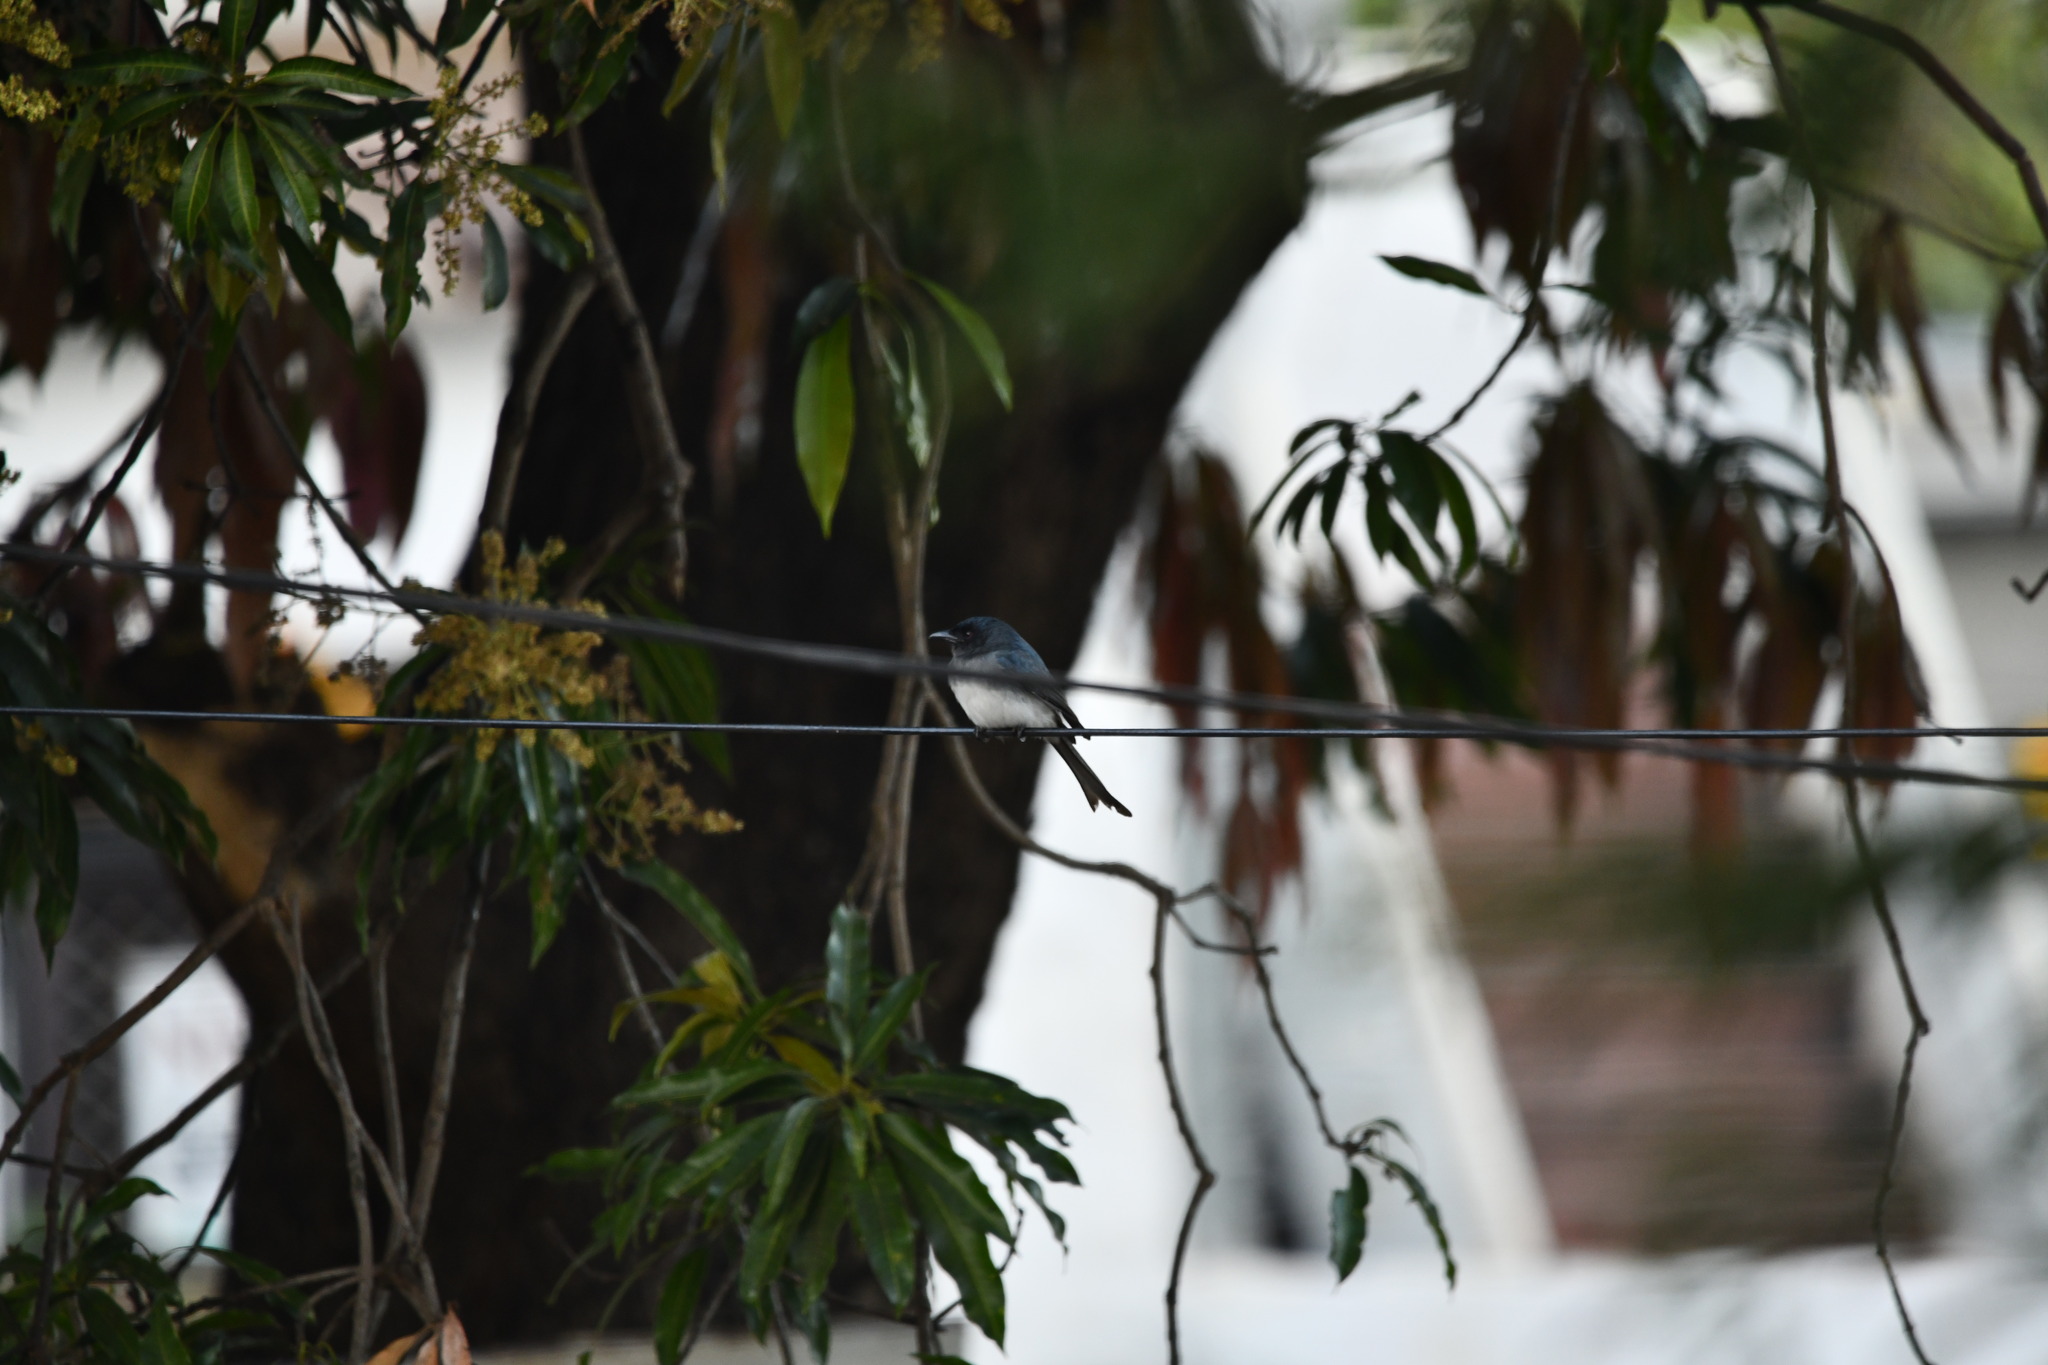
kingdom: Animalia
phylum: Chordata
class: Aves
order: Passeriformes
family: Dicruridae
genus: Dicrurus
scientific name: Dicrurus caerulescens
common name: White-bellied drongo
